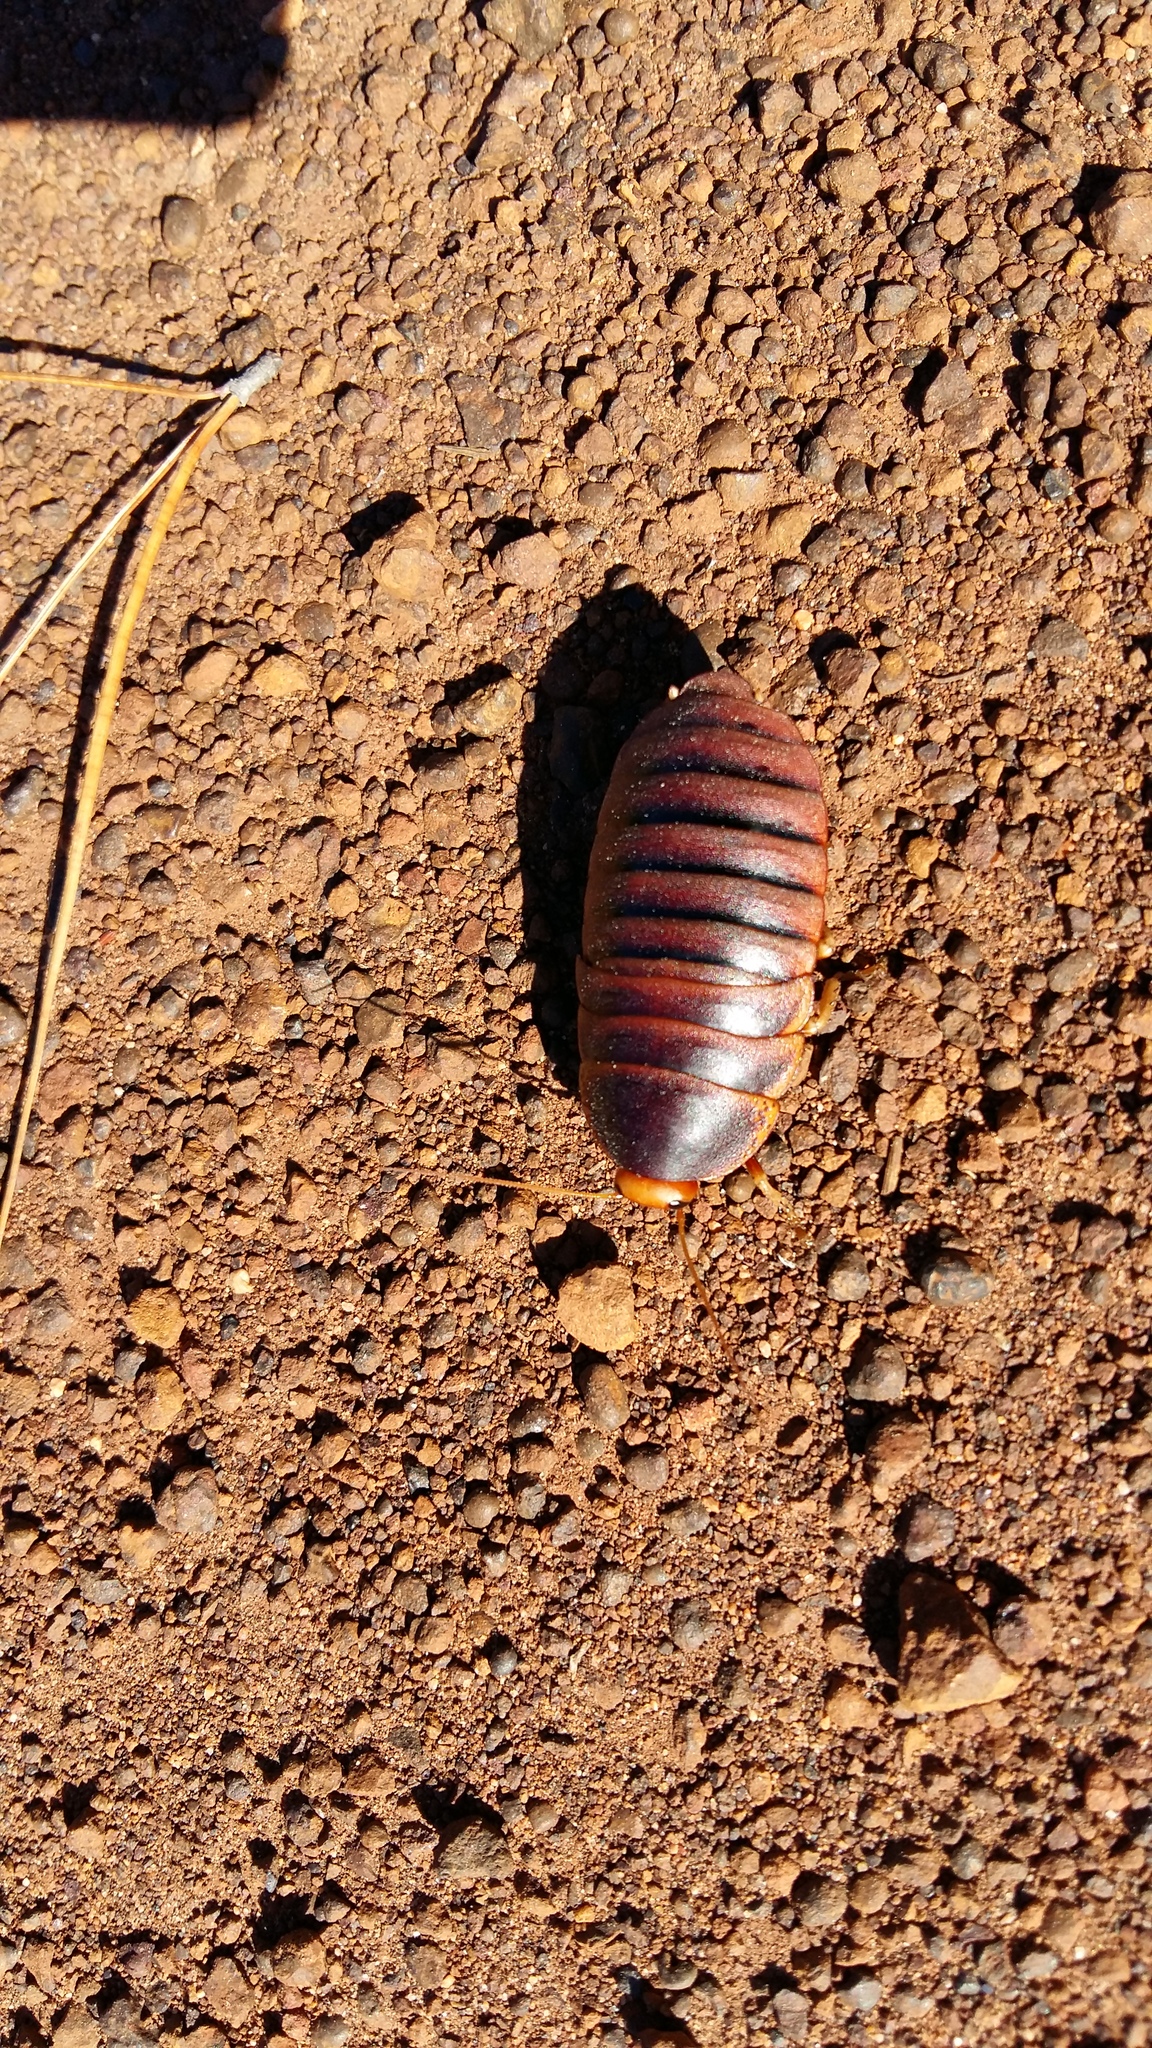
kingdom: Animalia
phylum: Arthropoda
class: Insecta
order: Blattodea
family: Blaberidae
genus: Aptera
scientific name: Aptera fusca
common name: Cape mountain cockroach
